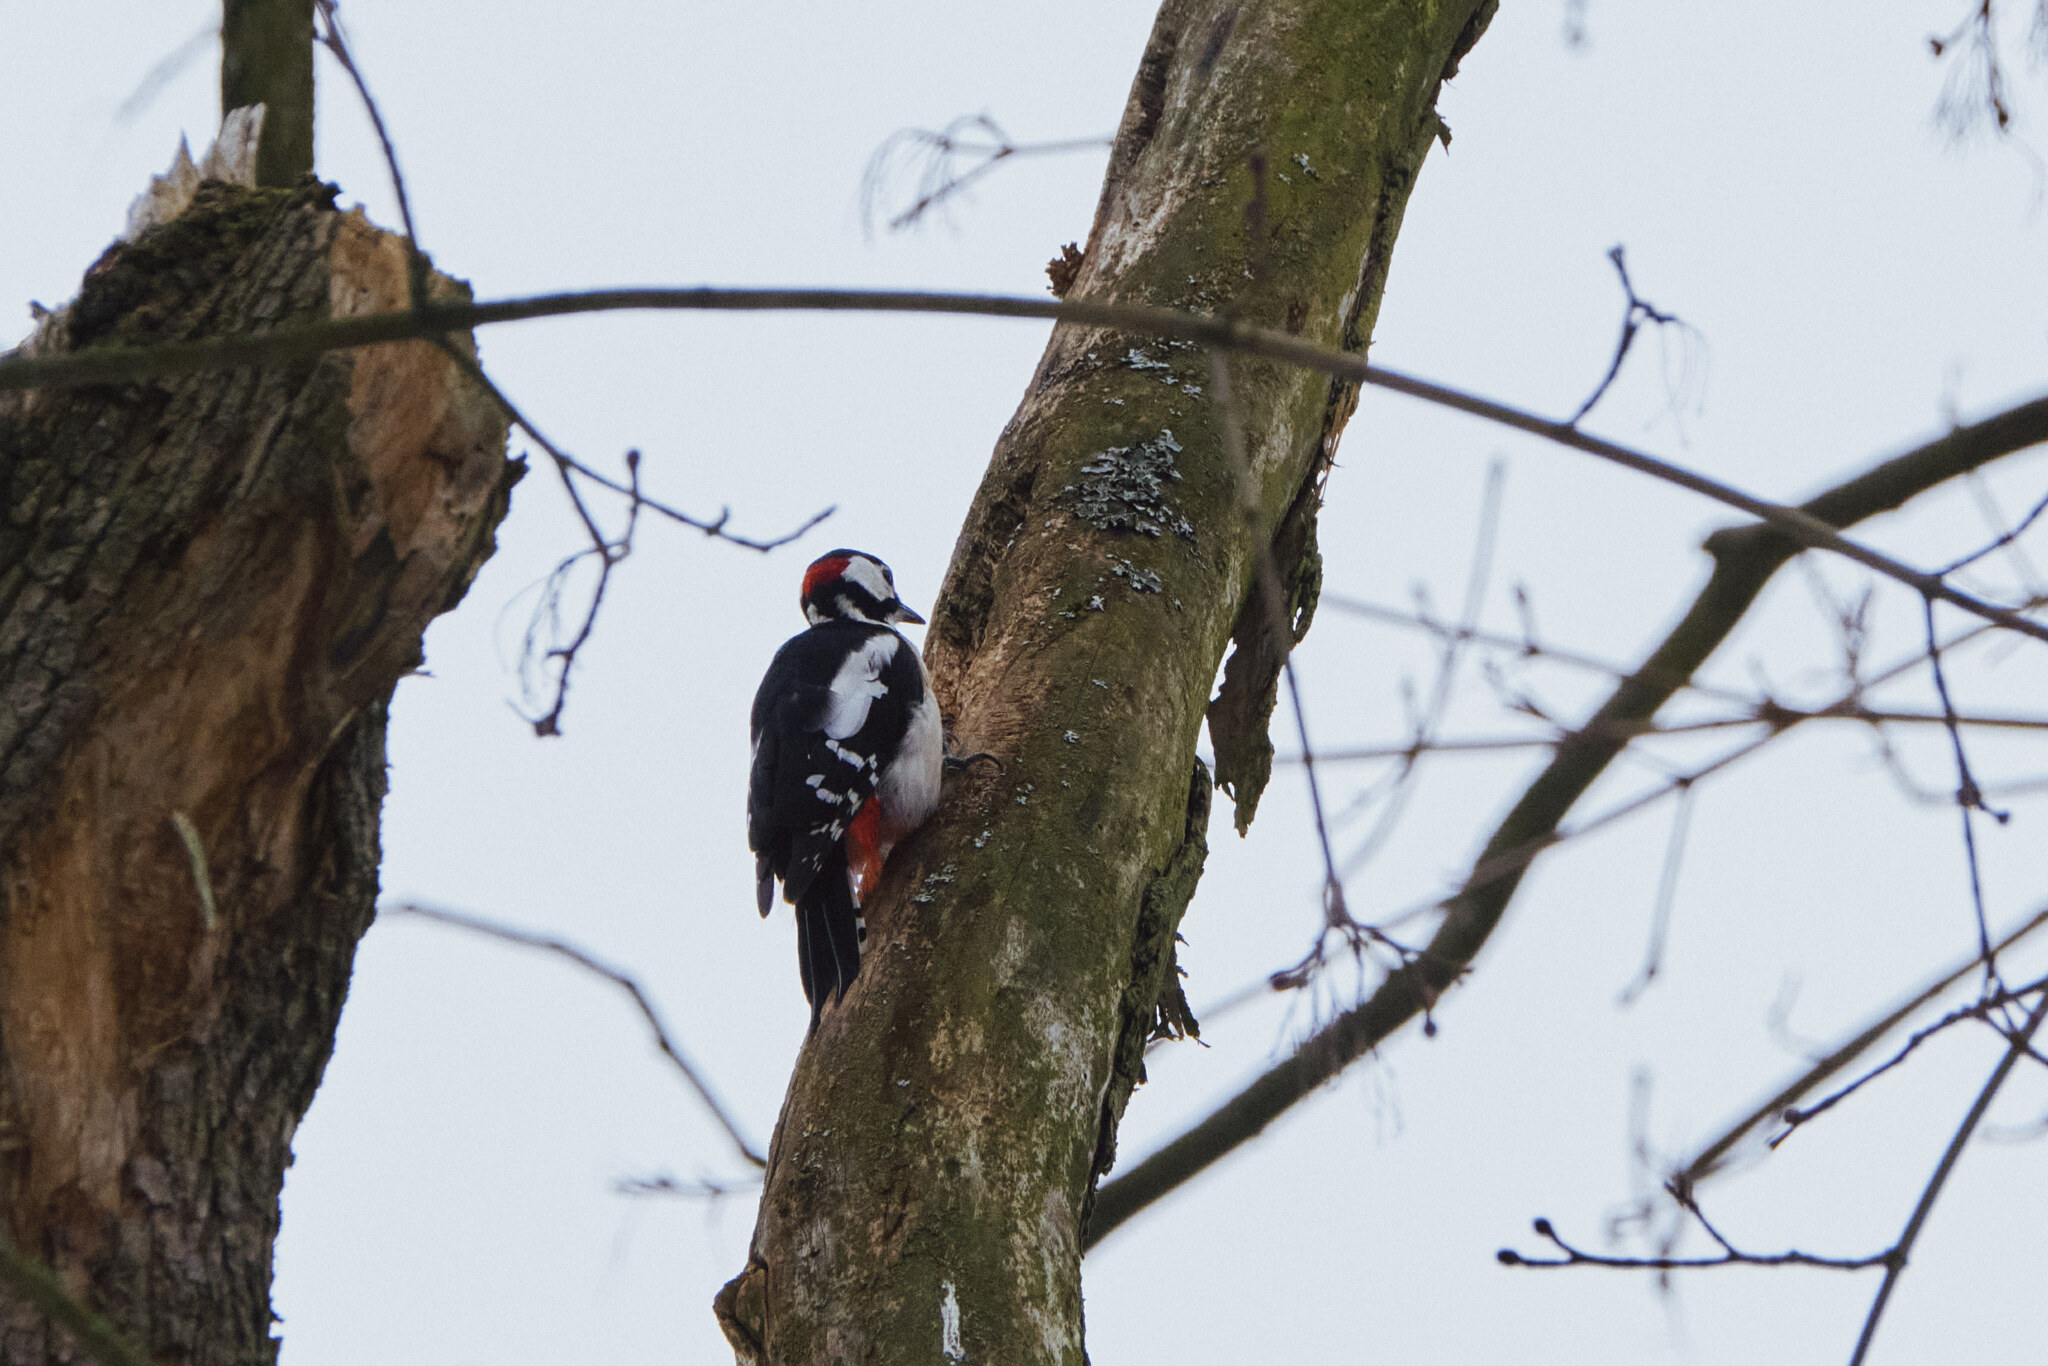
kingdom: Animalia
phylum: Chordata
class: Aves
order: Piciformes
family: Picidae
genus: Dendrocopos
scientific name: Dendrocopos major
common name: Great spotted woodpecker
